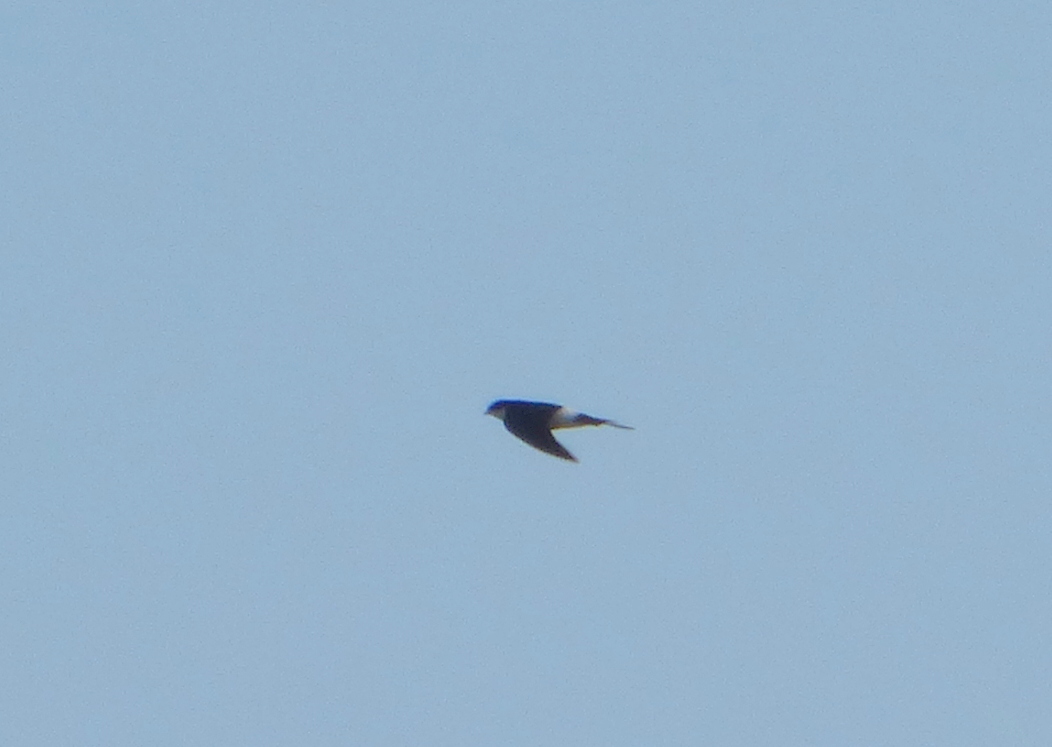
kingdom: Animalia
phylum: Chordata
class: Aves
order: Passeriformes
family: Hirundinidae
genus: Tachycineta
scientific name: Tachycineta leucorrhoa
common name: White-rumped swallow
